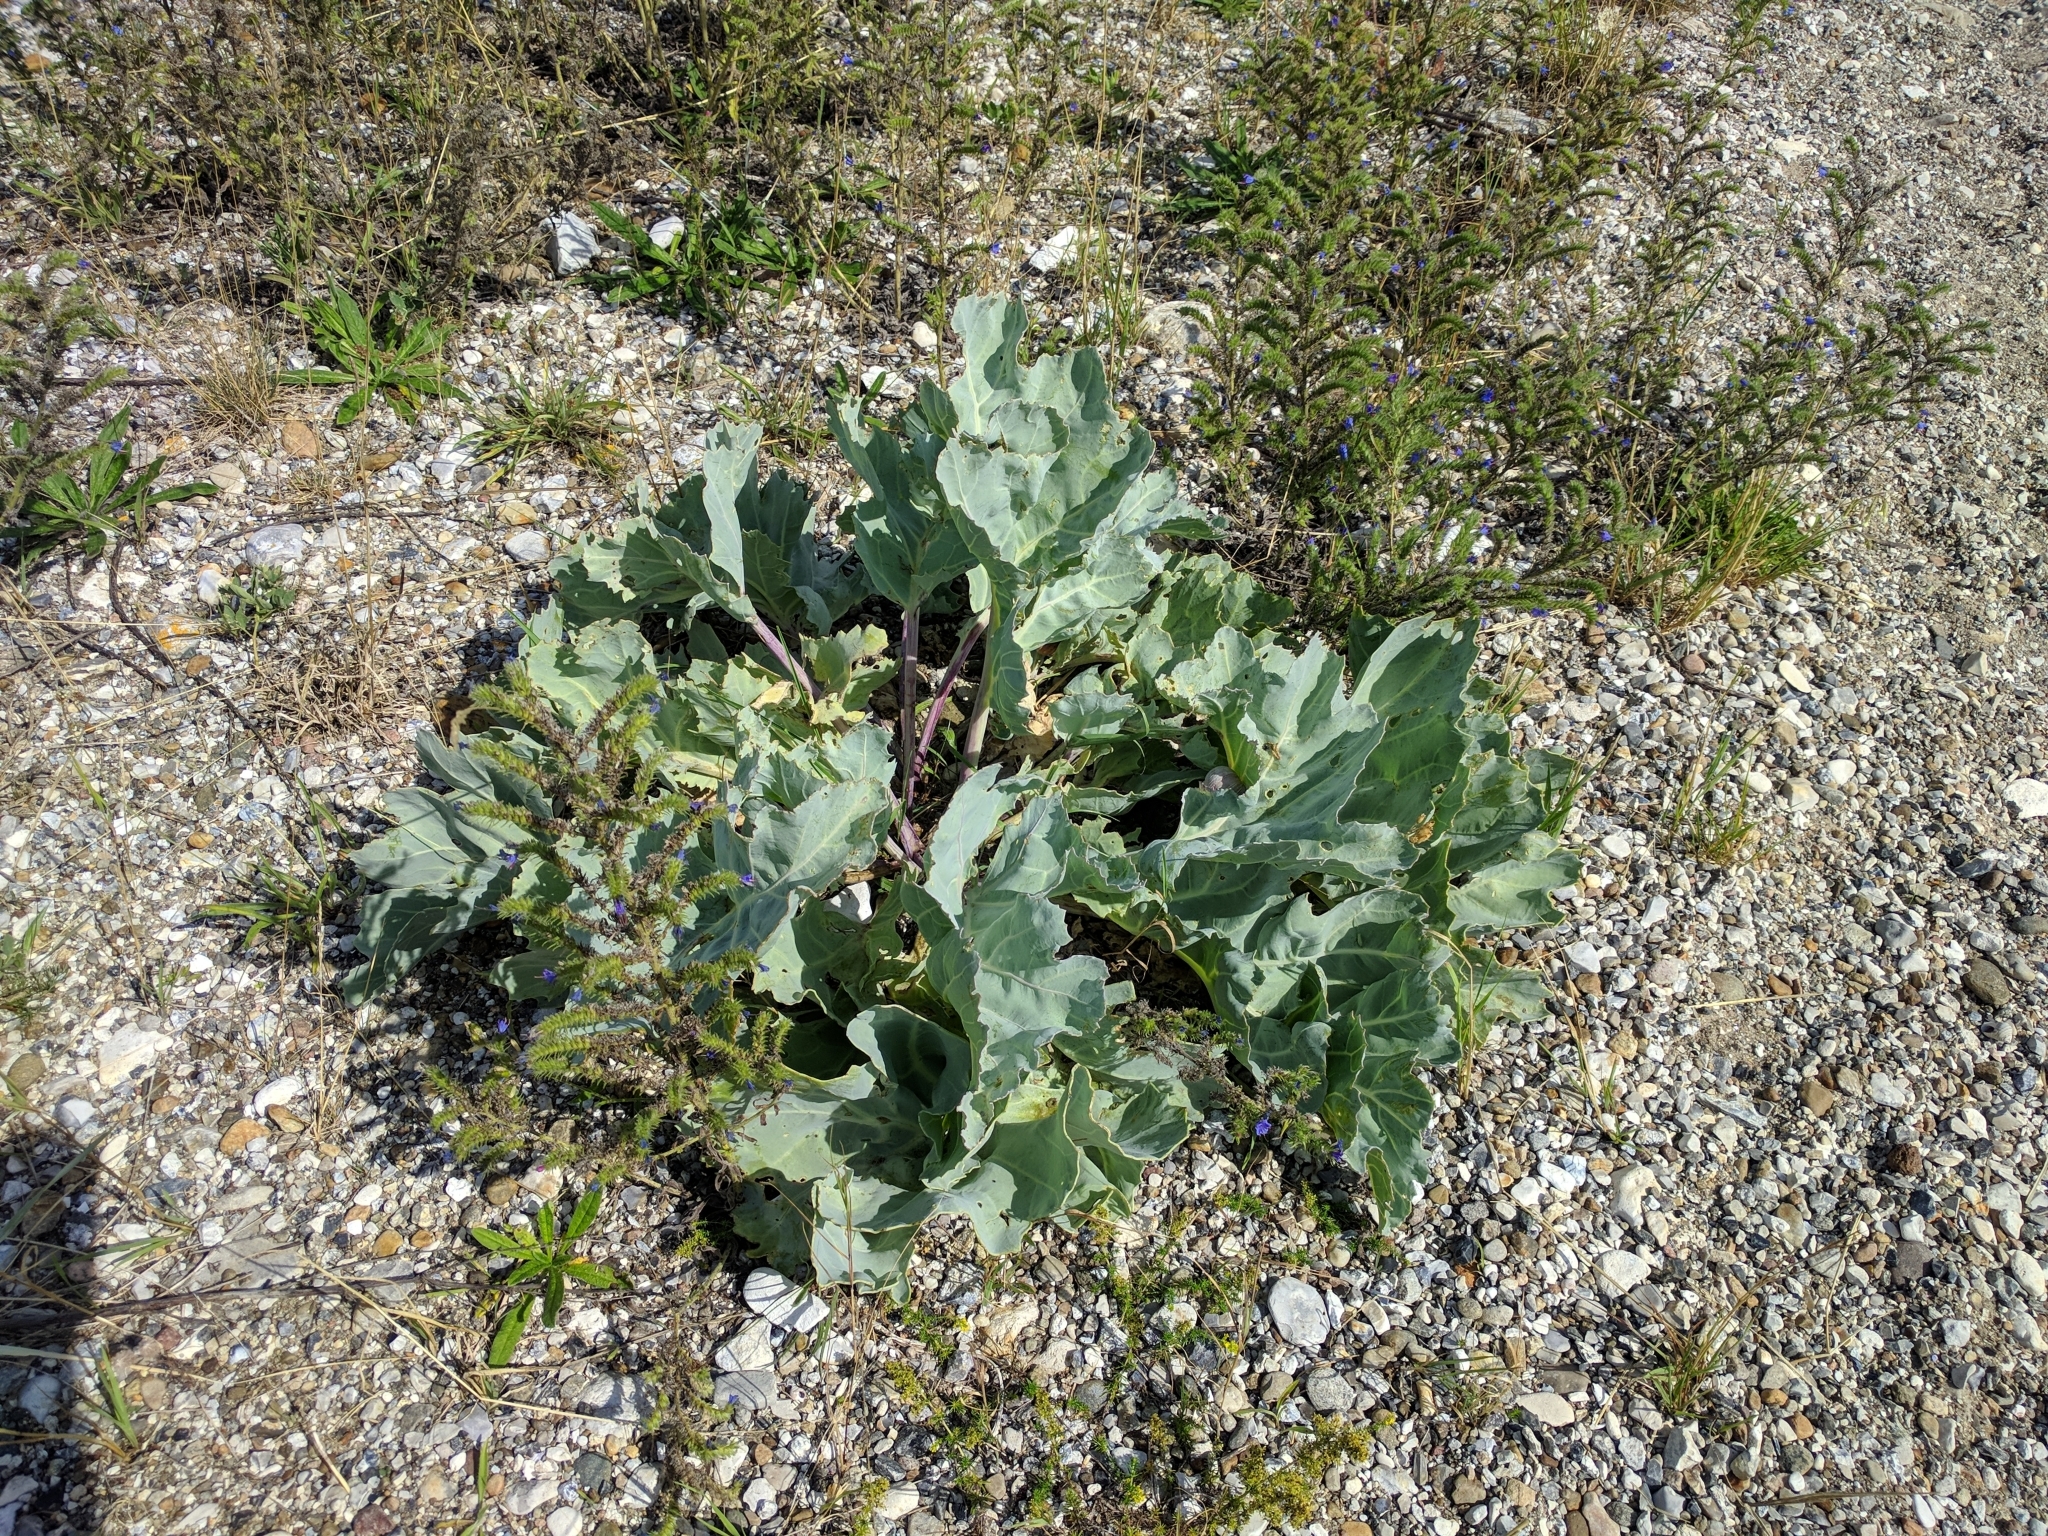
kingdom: Plantae
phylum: Tracheophyta
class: Magnoliopsida
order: Brassicales
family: Brassicaceae
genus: Crambe
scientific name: Crambe maritima
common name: Sea-kale
